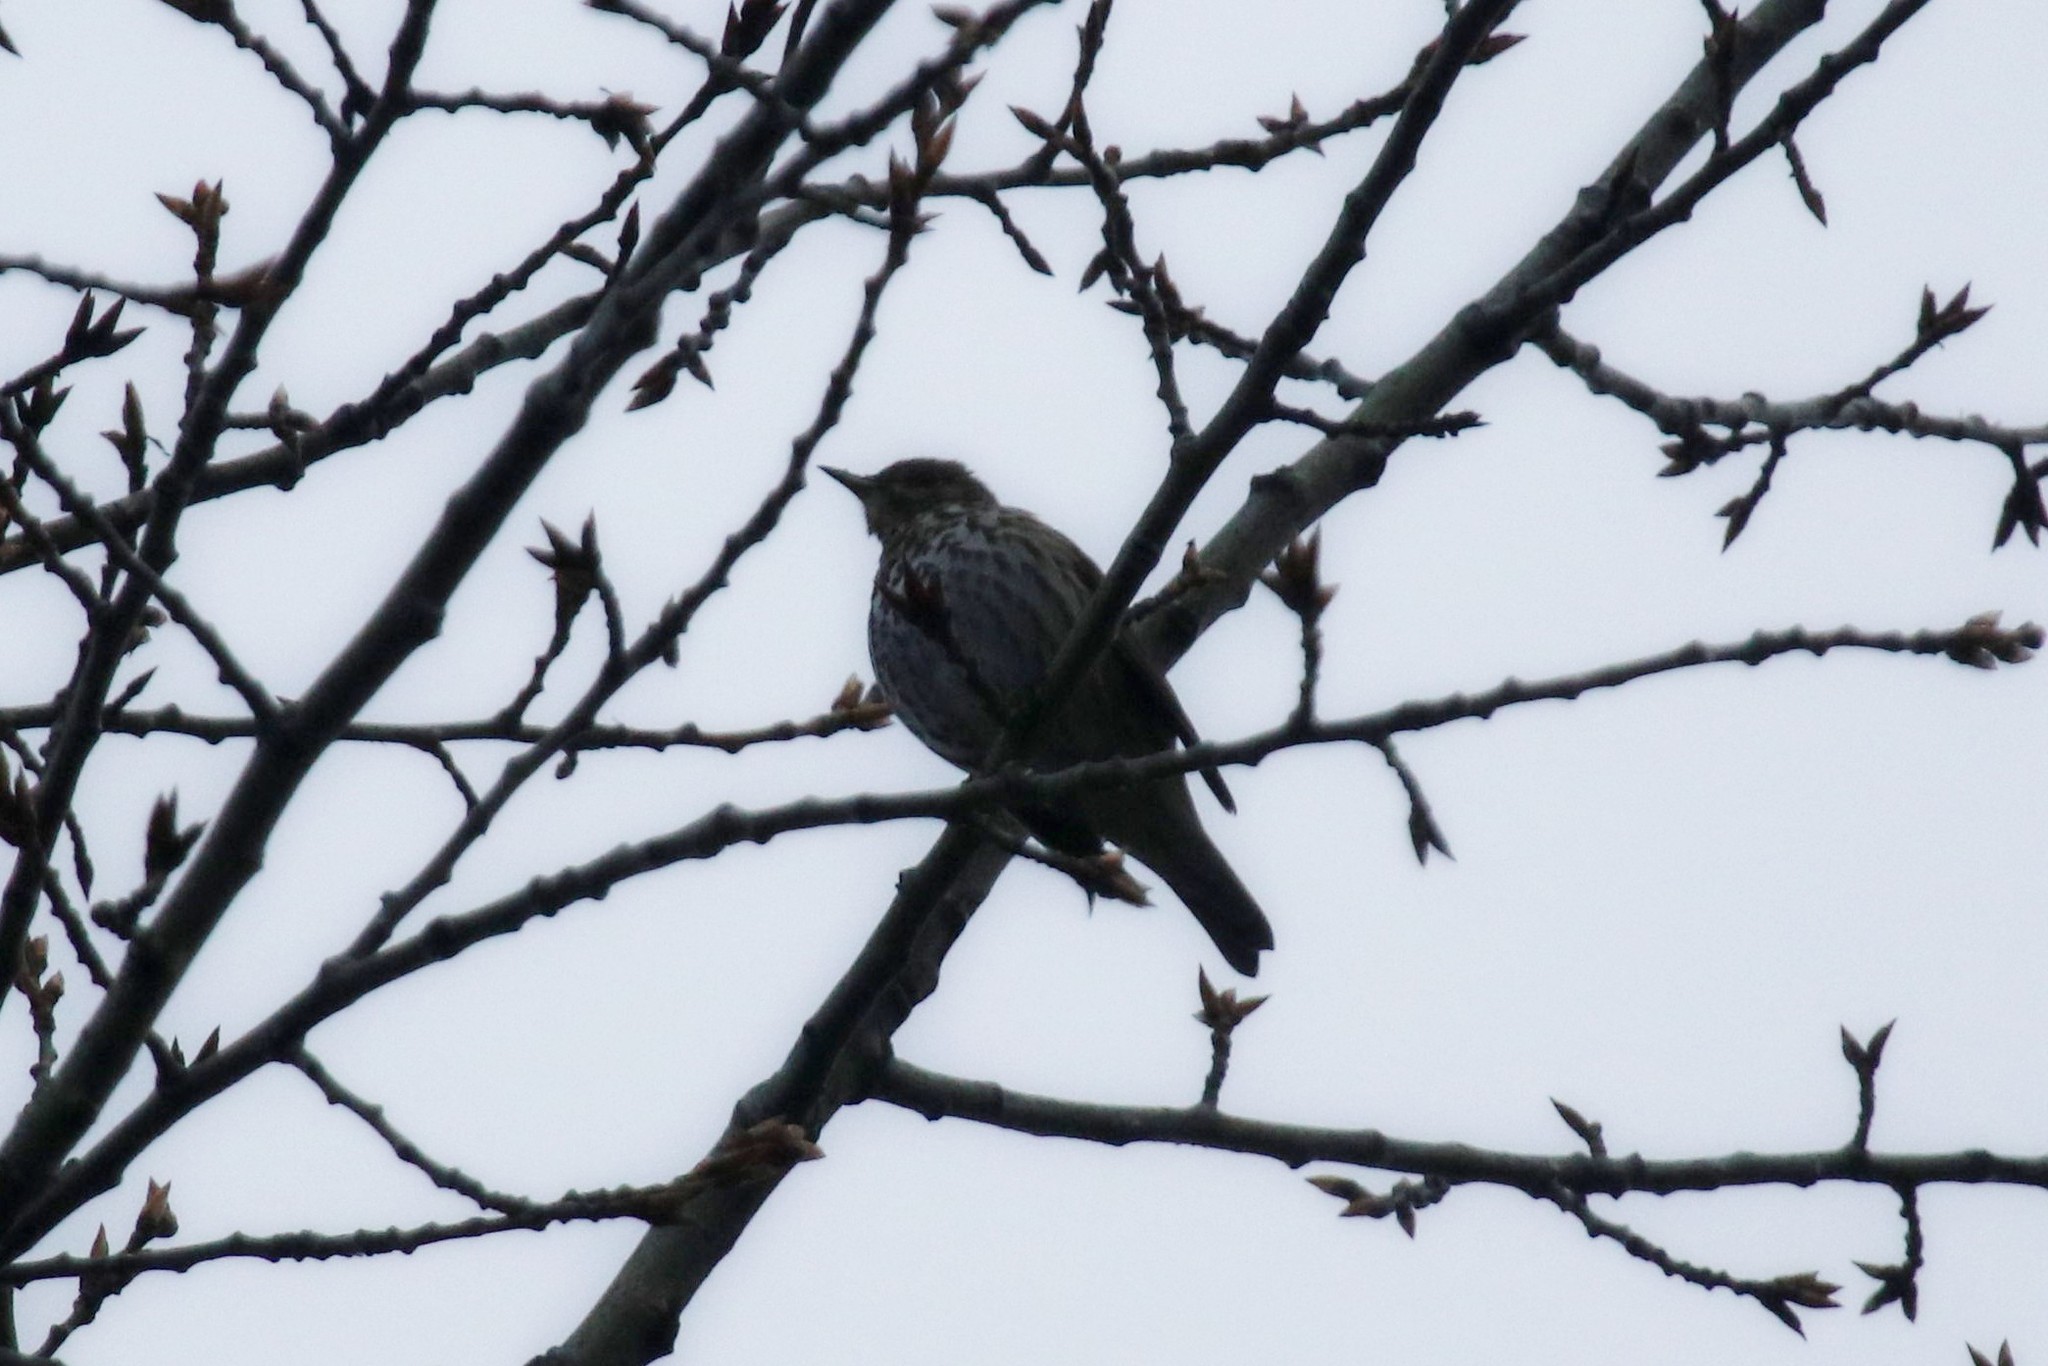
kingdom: Animalia
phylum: Chordata
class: Aves
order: Passeriformes
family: Turdidae
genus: Turdus
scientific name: Turdus philomelos
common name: Song thrush
